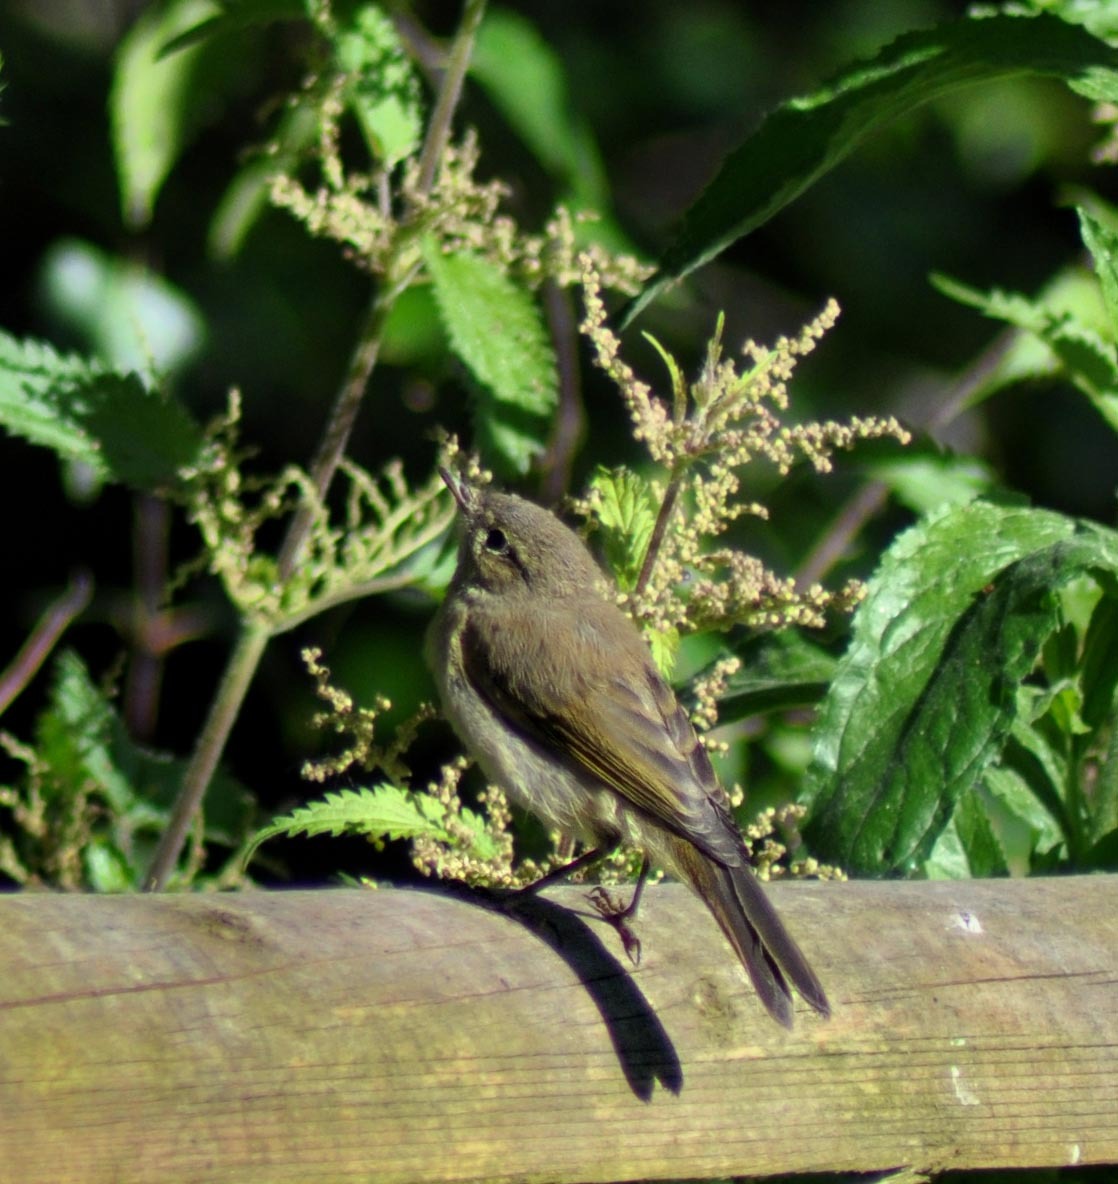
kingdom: Animalia
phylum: Chordata
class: Aves
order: Passeriformes
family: Phylloscopidae
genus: Phylloscopus
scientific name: Phylloscopus collybita
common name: Common chiffchaff
